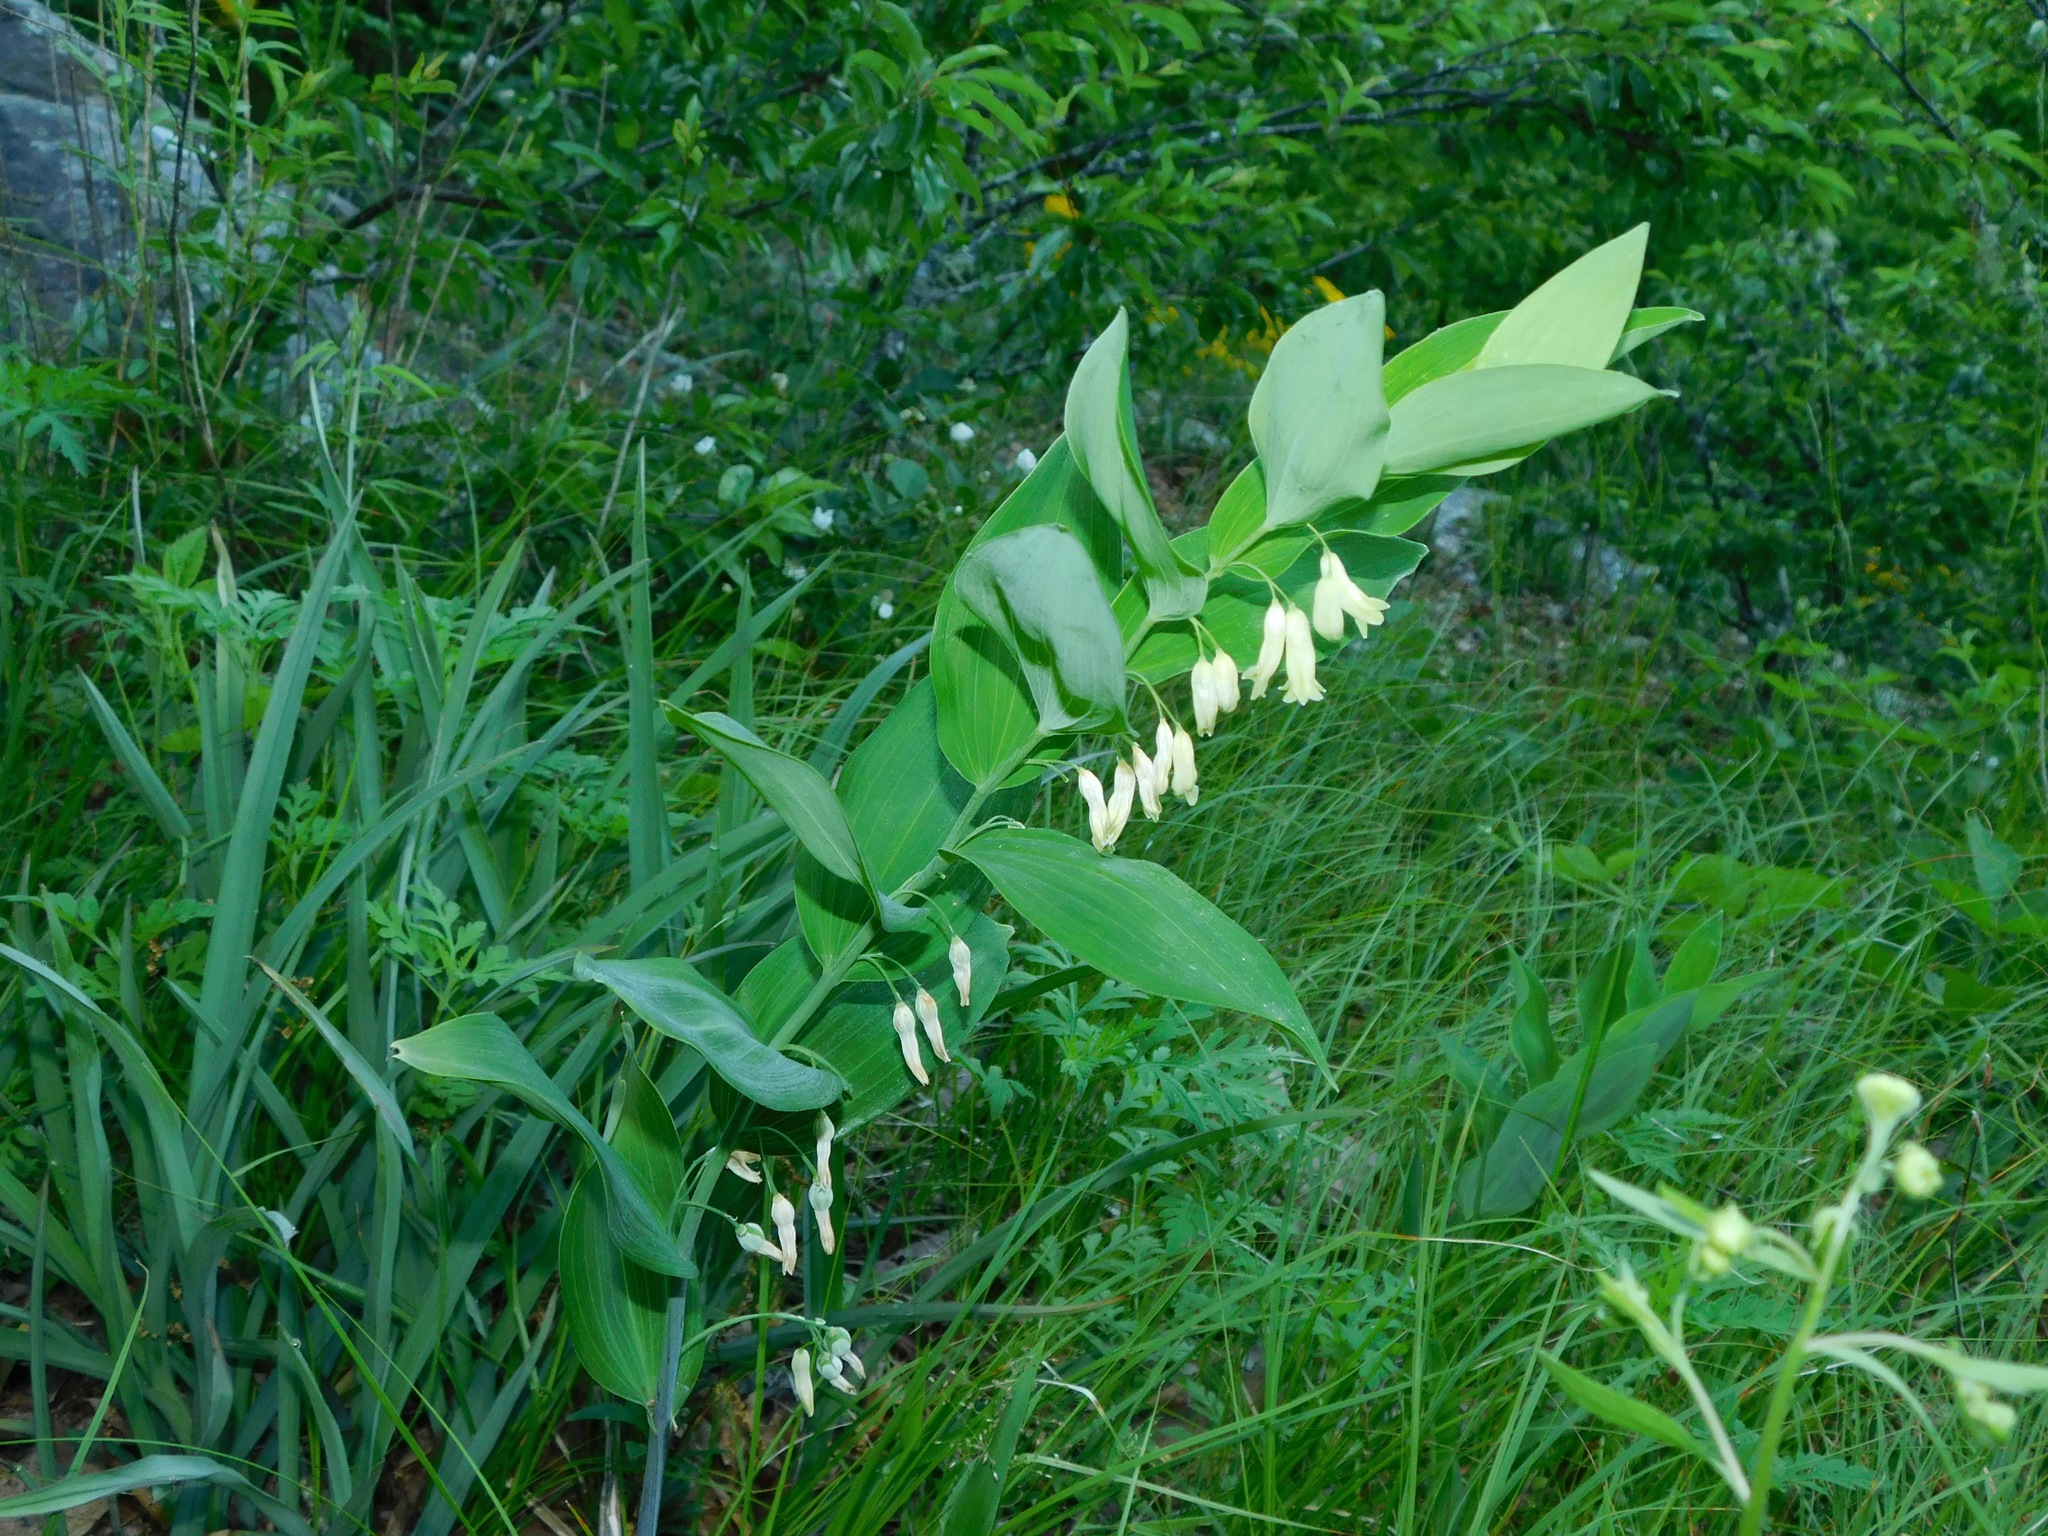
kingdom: Plantae
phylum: Tracheophyta
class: Liliopsida
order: Asparagales
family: Asparagaceae
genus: Polygonatum
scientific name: Polygonatum biflorum
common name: American solomon's-seal
